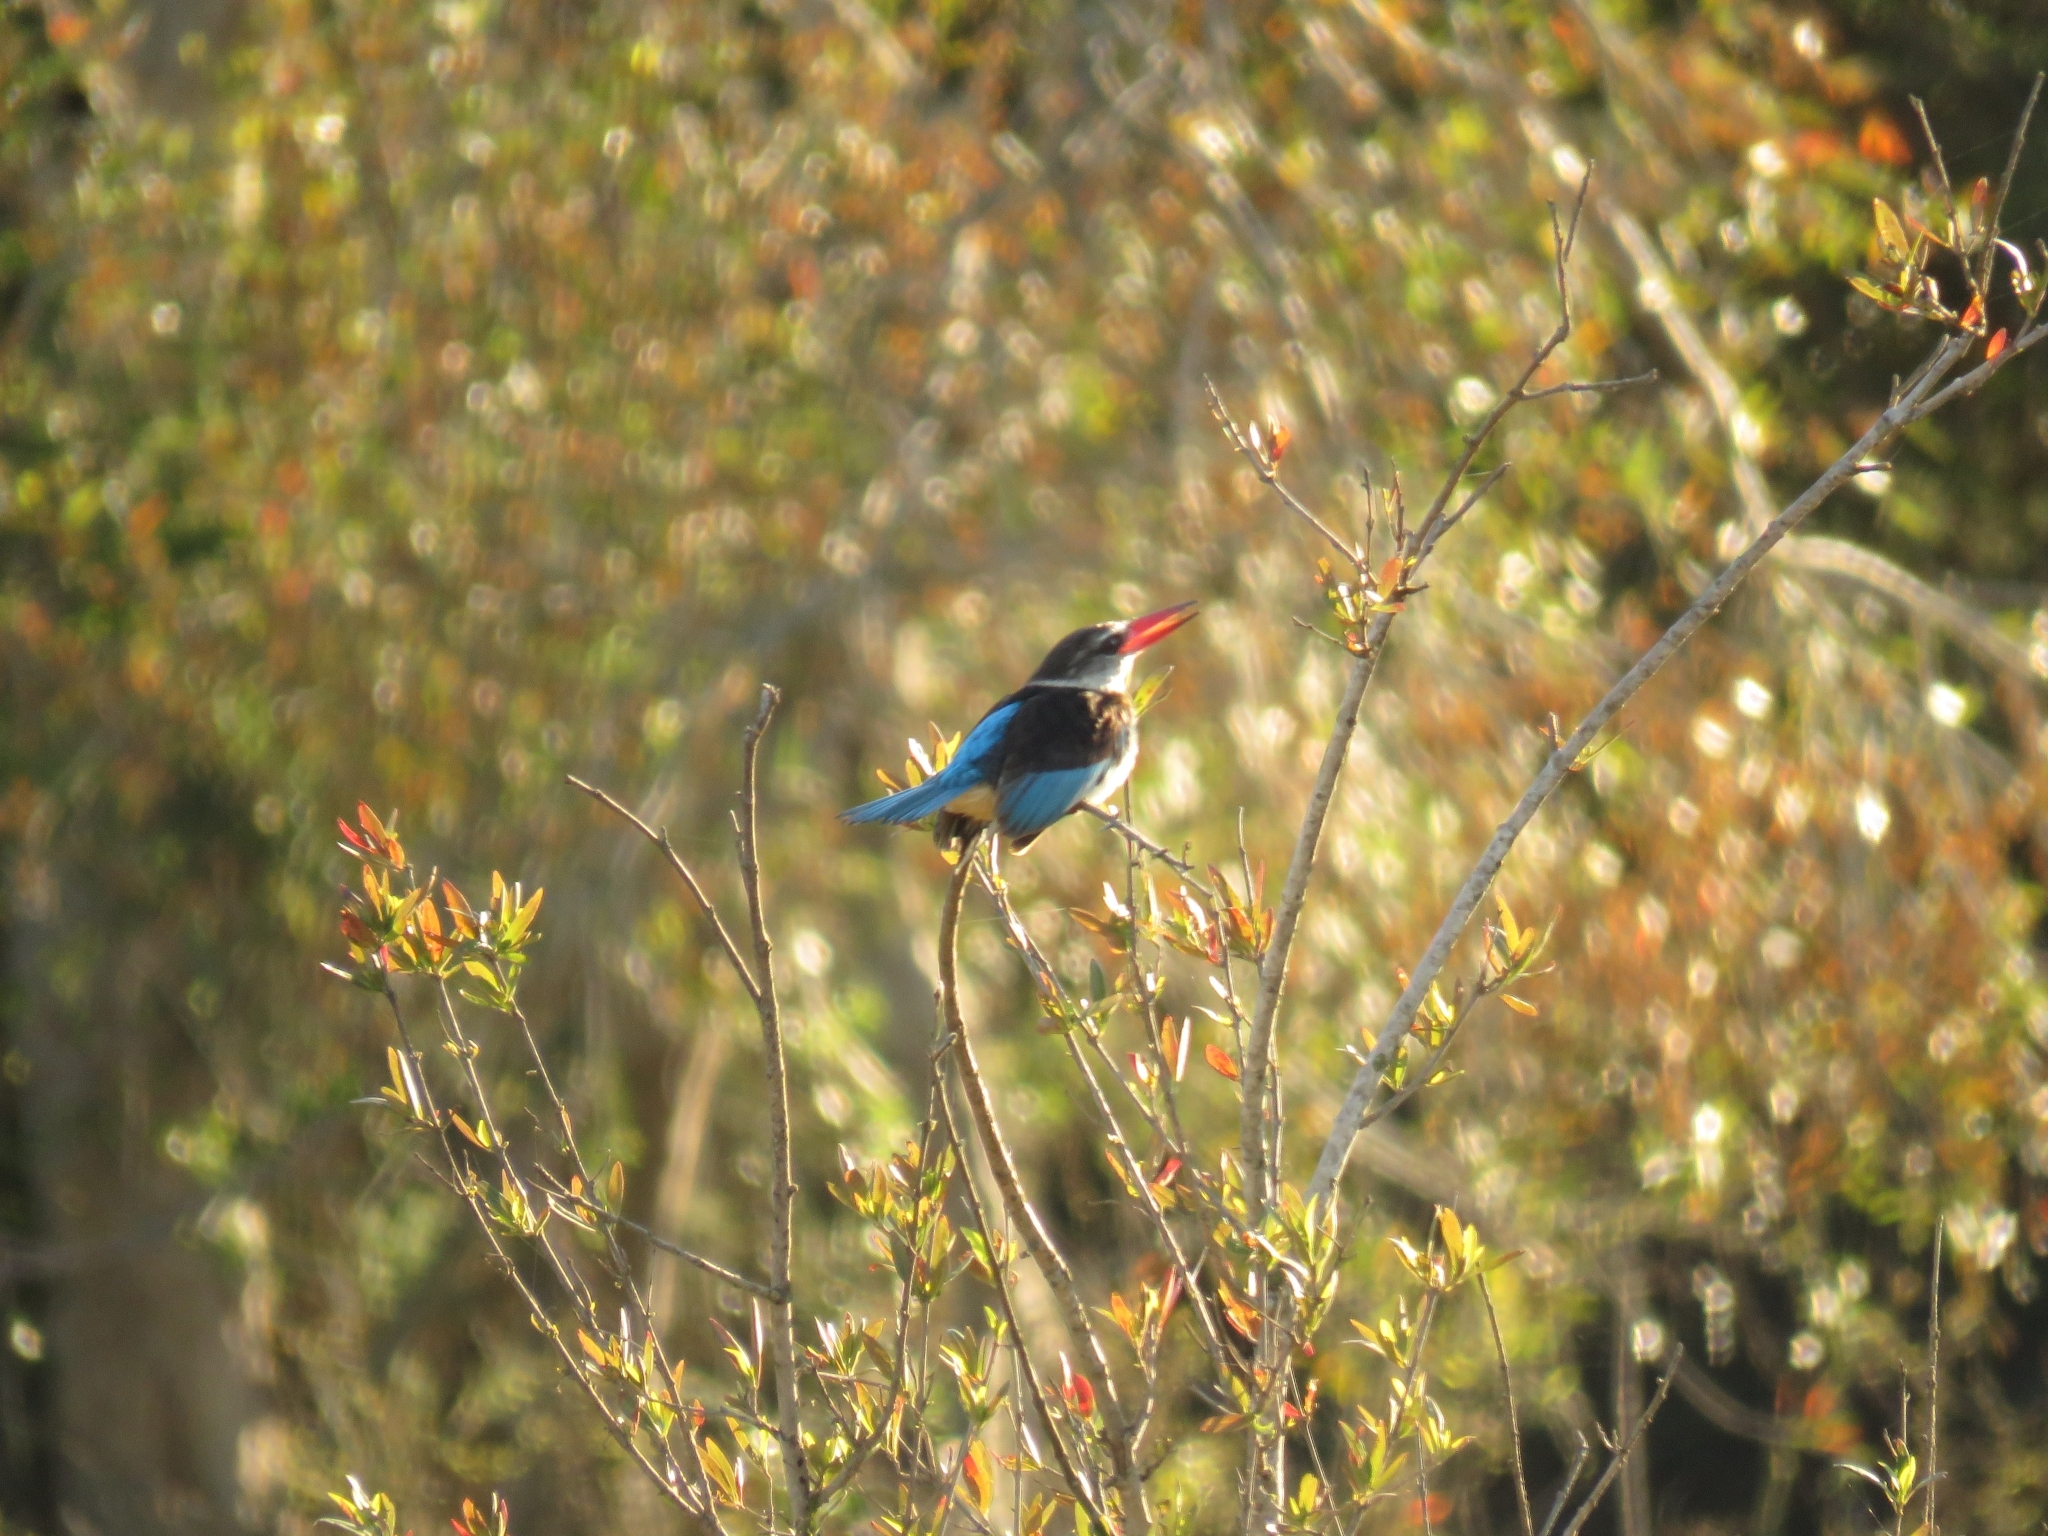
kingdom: Animalia
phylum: Chordata
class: Aves
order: Coraciiformes
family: Alcedinidae
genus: Halcyon
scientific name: Halcyon albiventris
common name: Brown-hooded kingfisher
